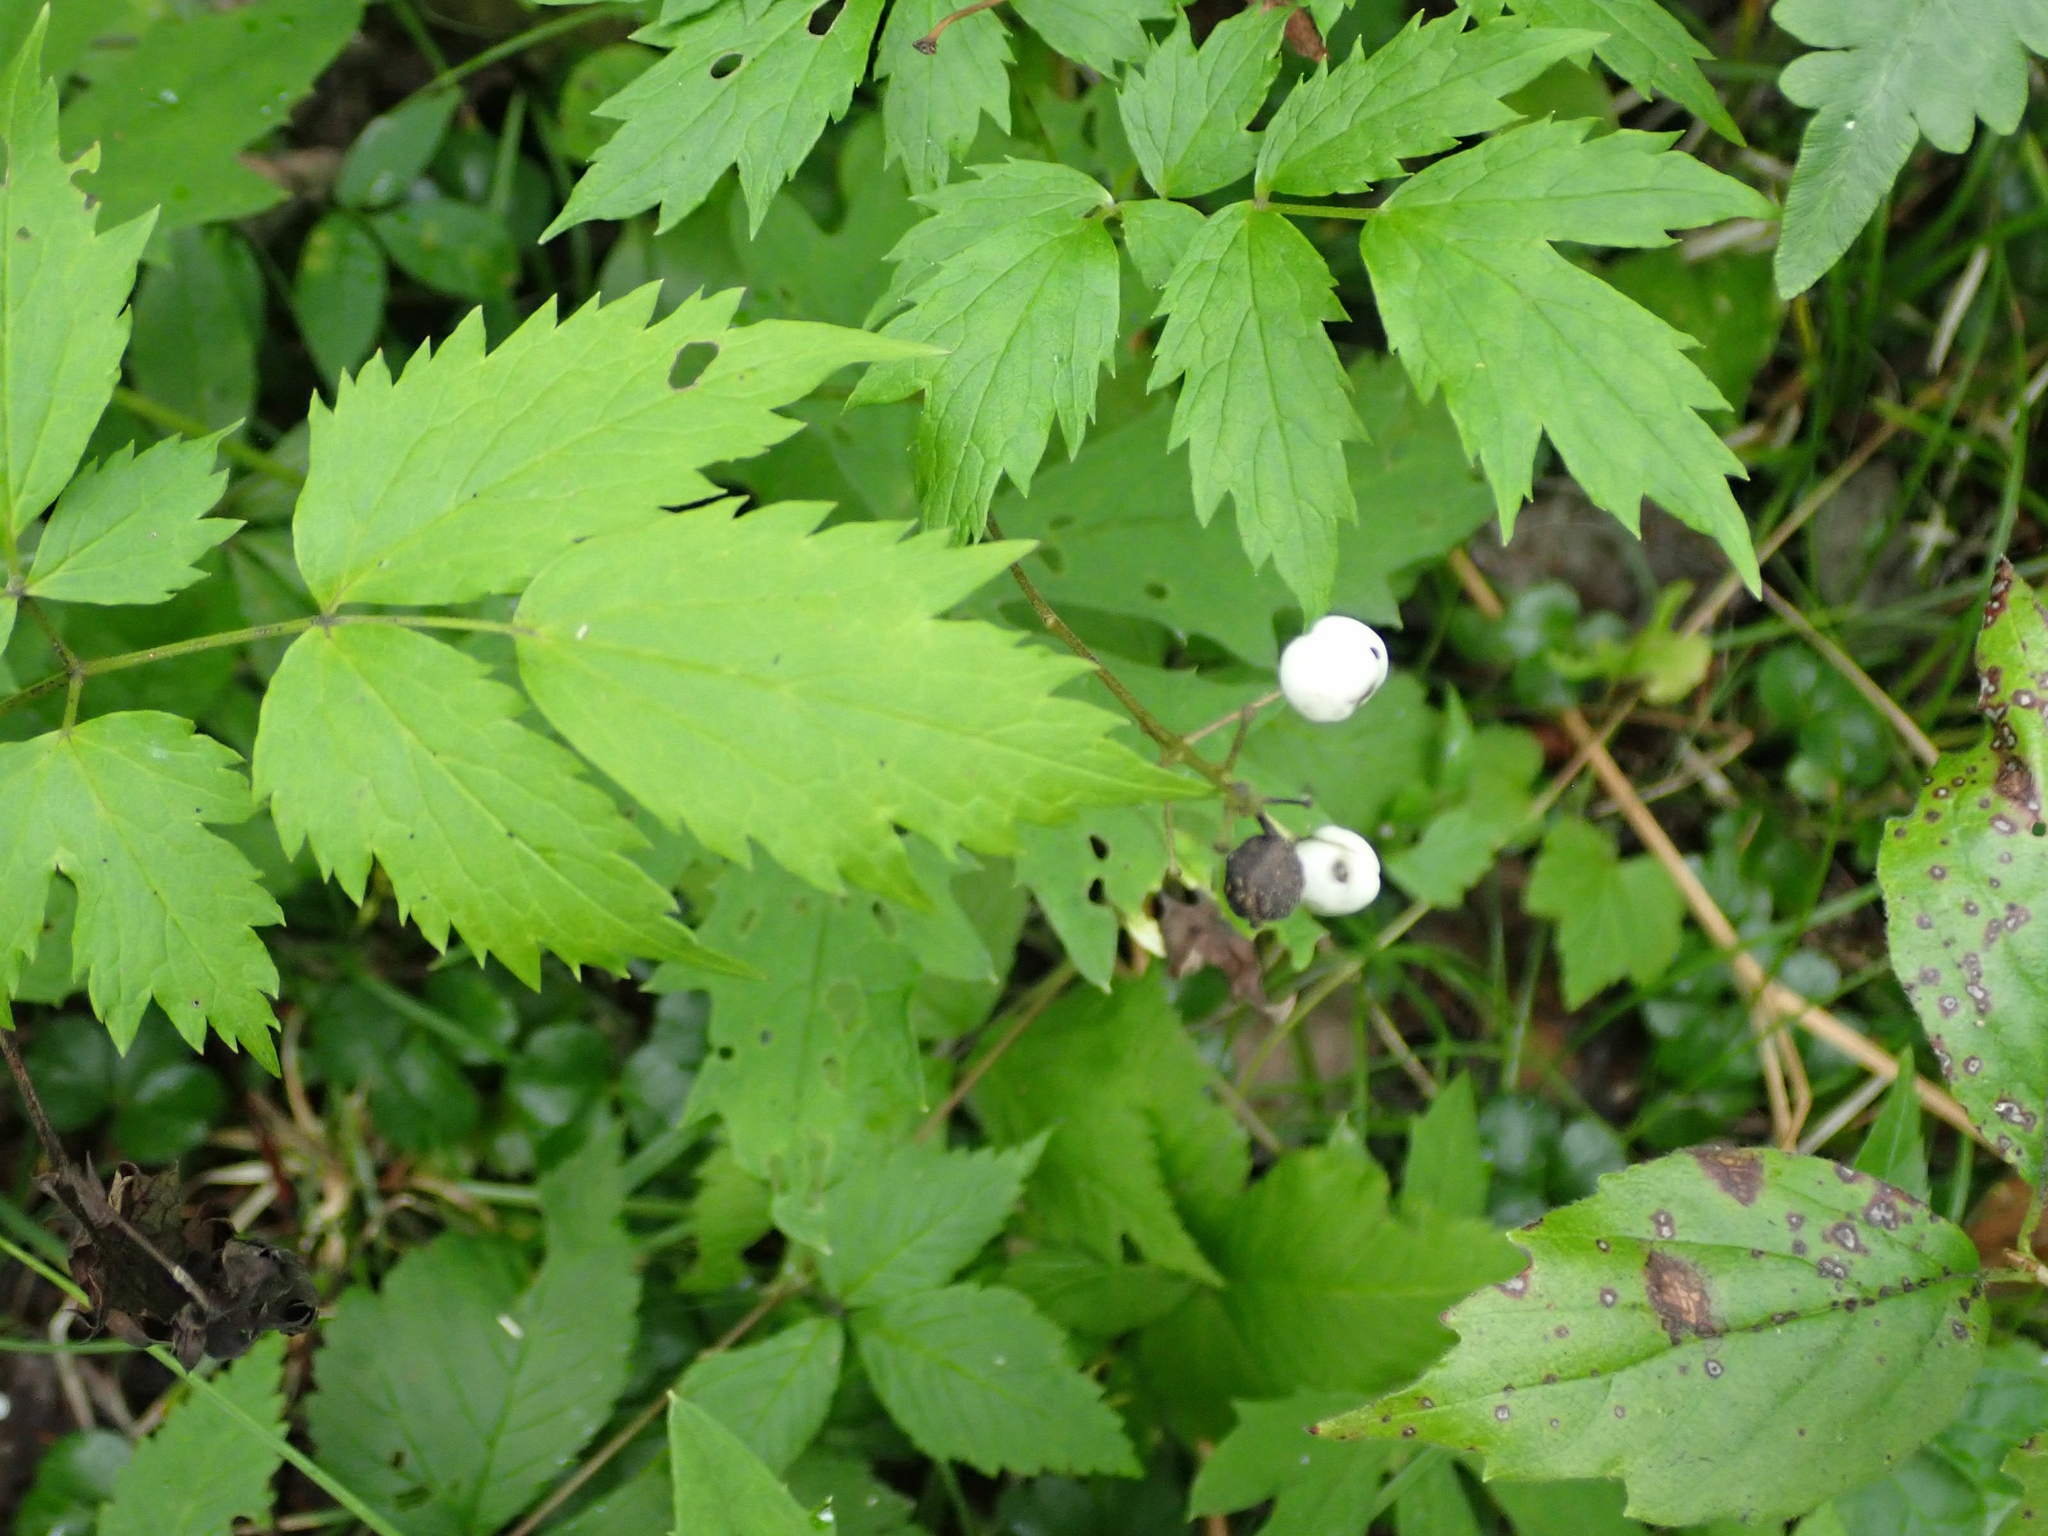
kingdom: Plantae
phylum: Tracheophyta
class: Magnoliopsida
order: Ranunculales
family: Ranunculaceae
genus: Actaea
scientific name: Actaea rubra
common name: Red baneberry
